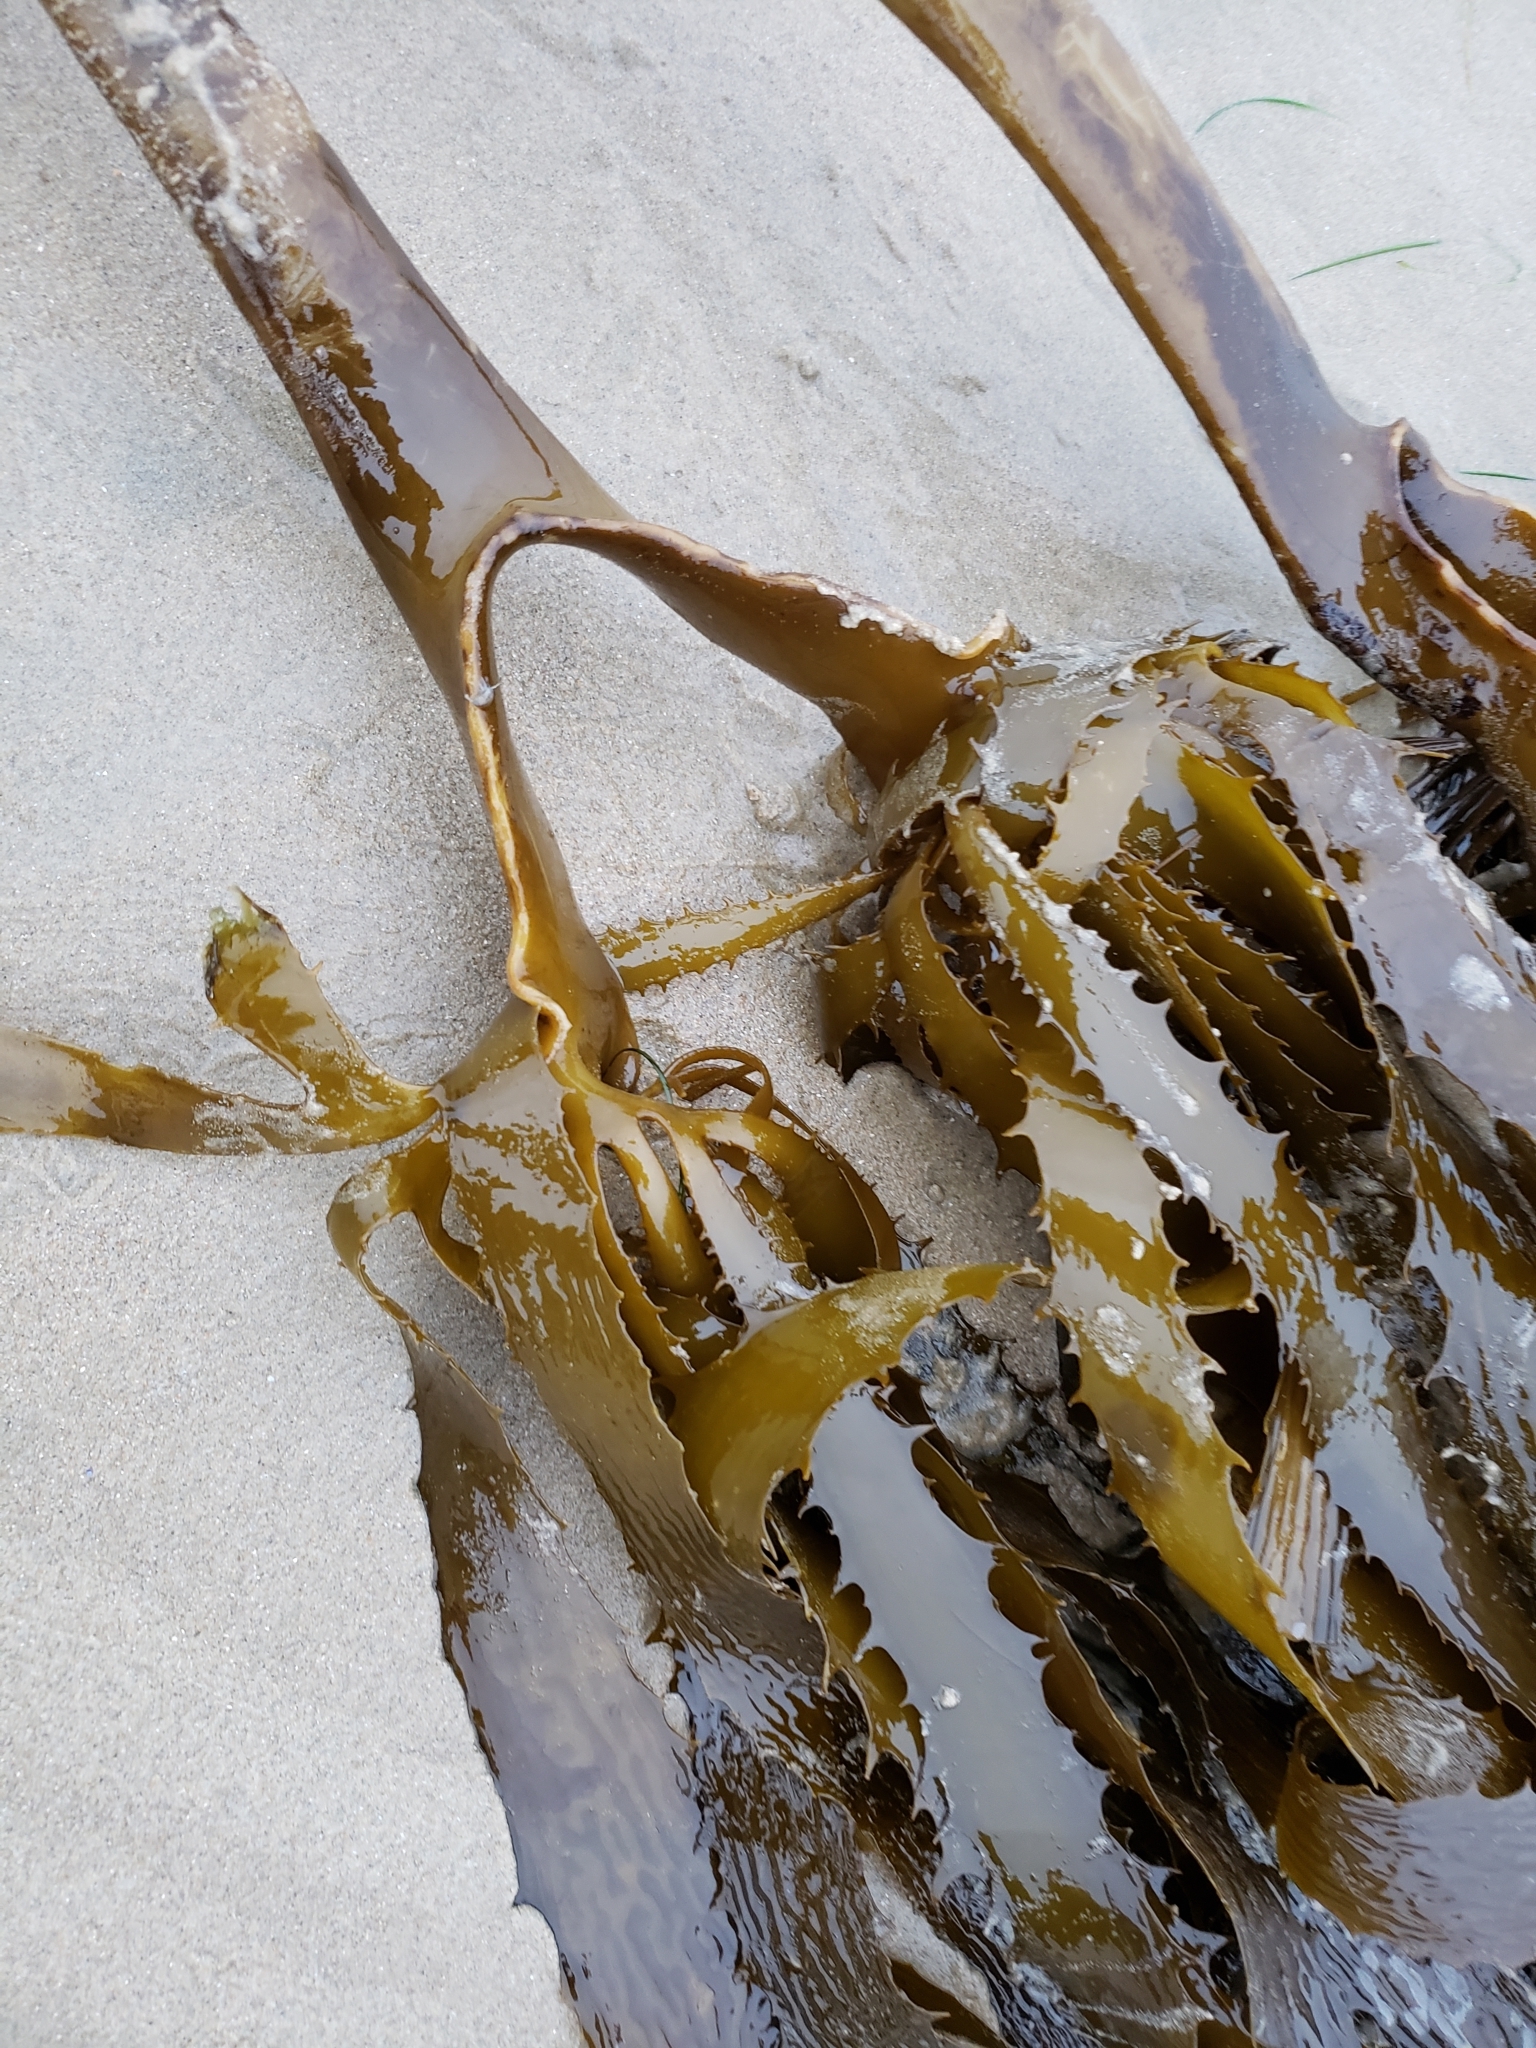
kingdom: Chromista
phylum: Ochrophyta
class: Phaeophyceae
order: Laminariales
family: Lessoniaceae
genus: Eisenia
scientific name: Eisenia arborea
